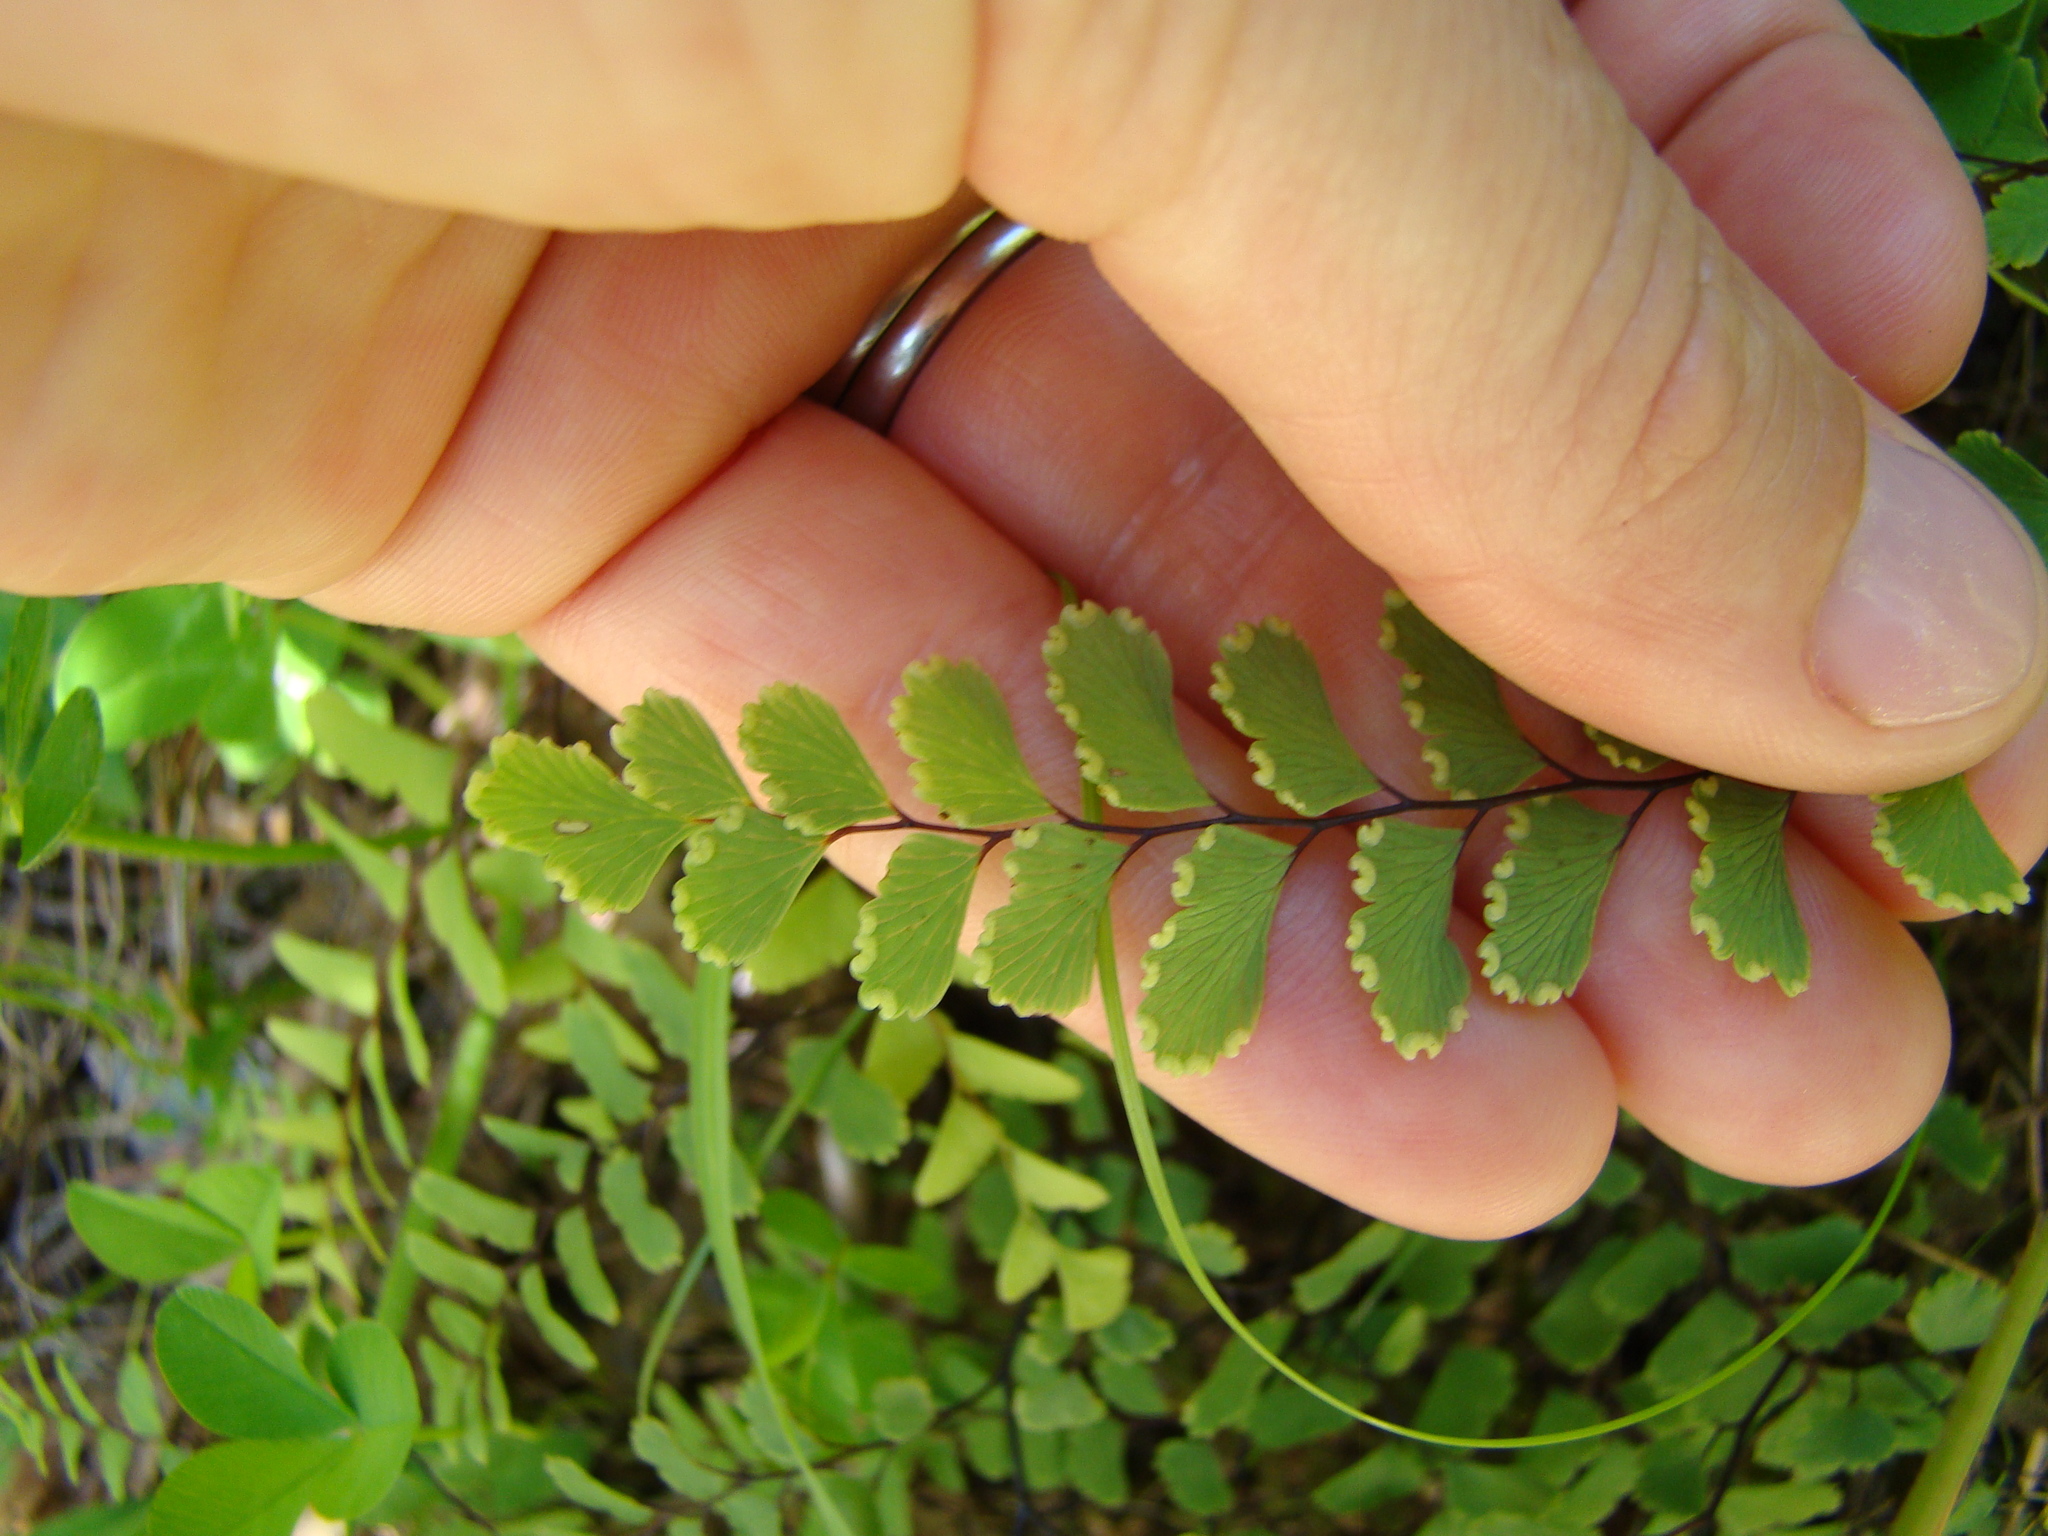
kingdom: Plantae
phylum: Tracheophyta
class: Polypodiopsida
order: Polypodiales
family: Pteridaceae
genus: Adiantum
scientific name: Adiantum cunninghamii
